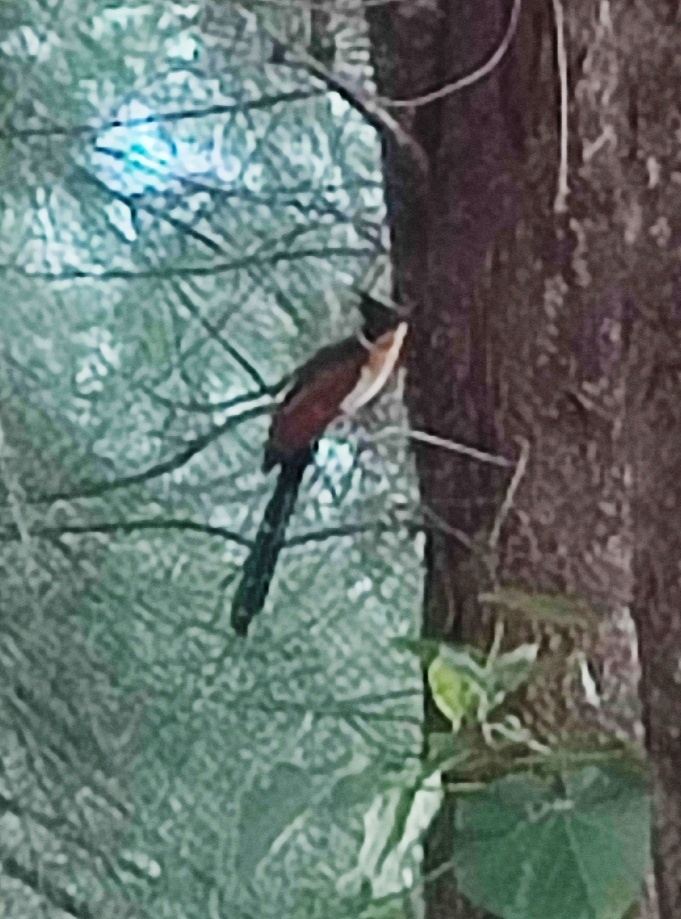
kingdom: Animalia
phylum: Chordata
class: Aves
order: Cuculiformes
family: Cuculidae
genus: Clamator
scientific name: Clamator coromandus
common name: Chestnut-winged cuckoo
